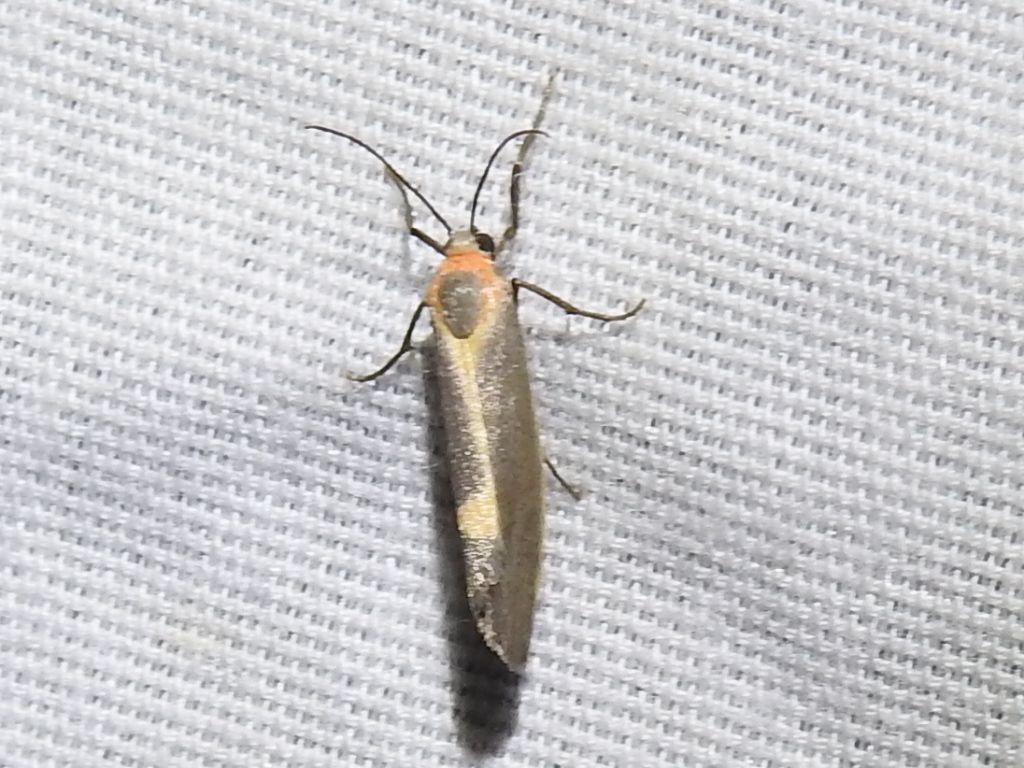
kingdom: Animalia
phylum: Arthropoda
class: Insecta
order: Lepidoptera
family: Erebidae
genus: Cisthene
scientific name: Cisthene plumbea
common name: Lead colored lichen moth
